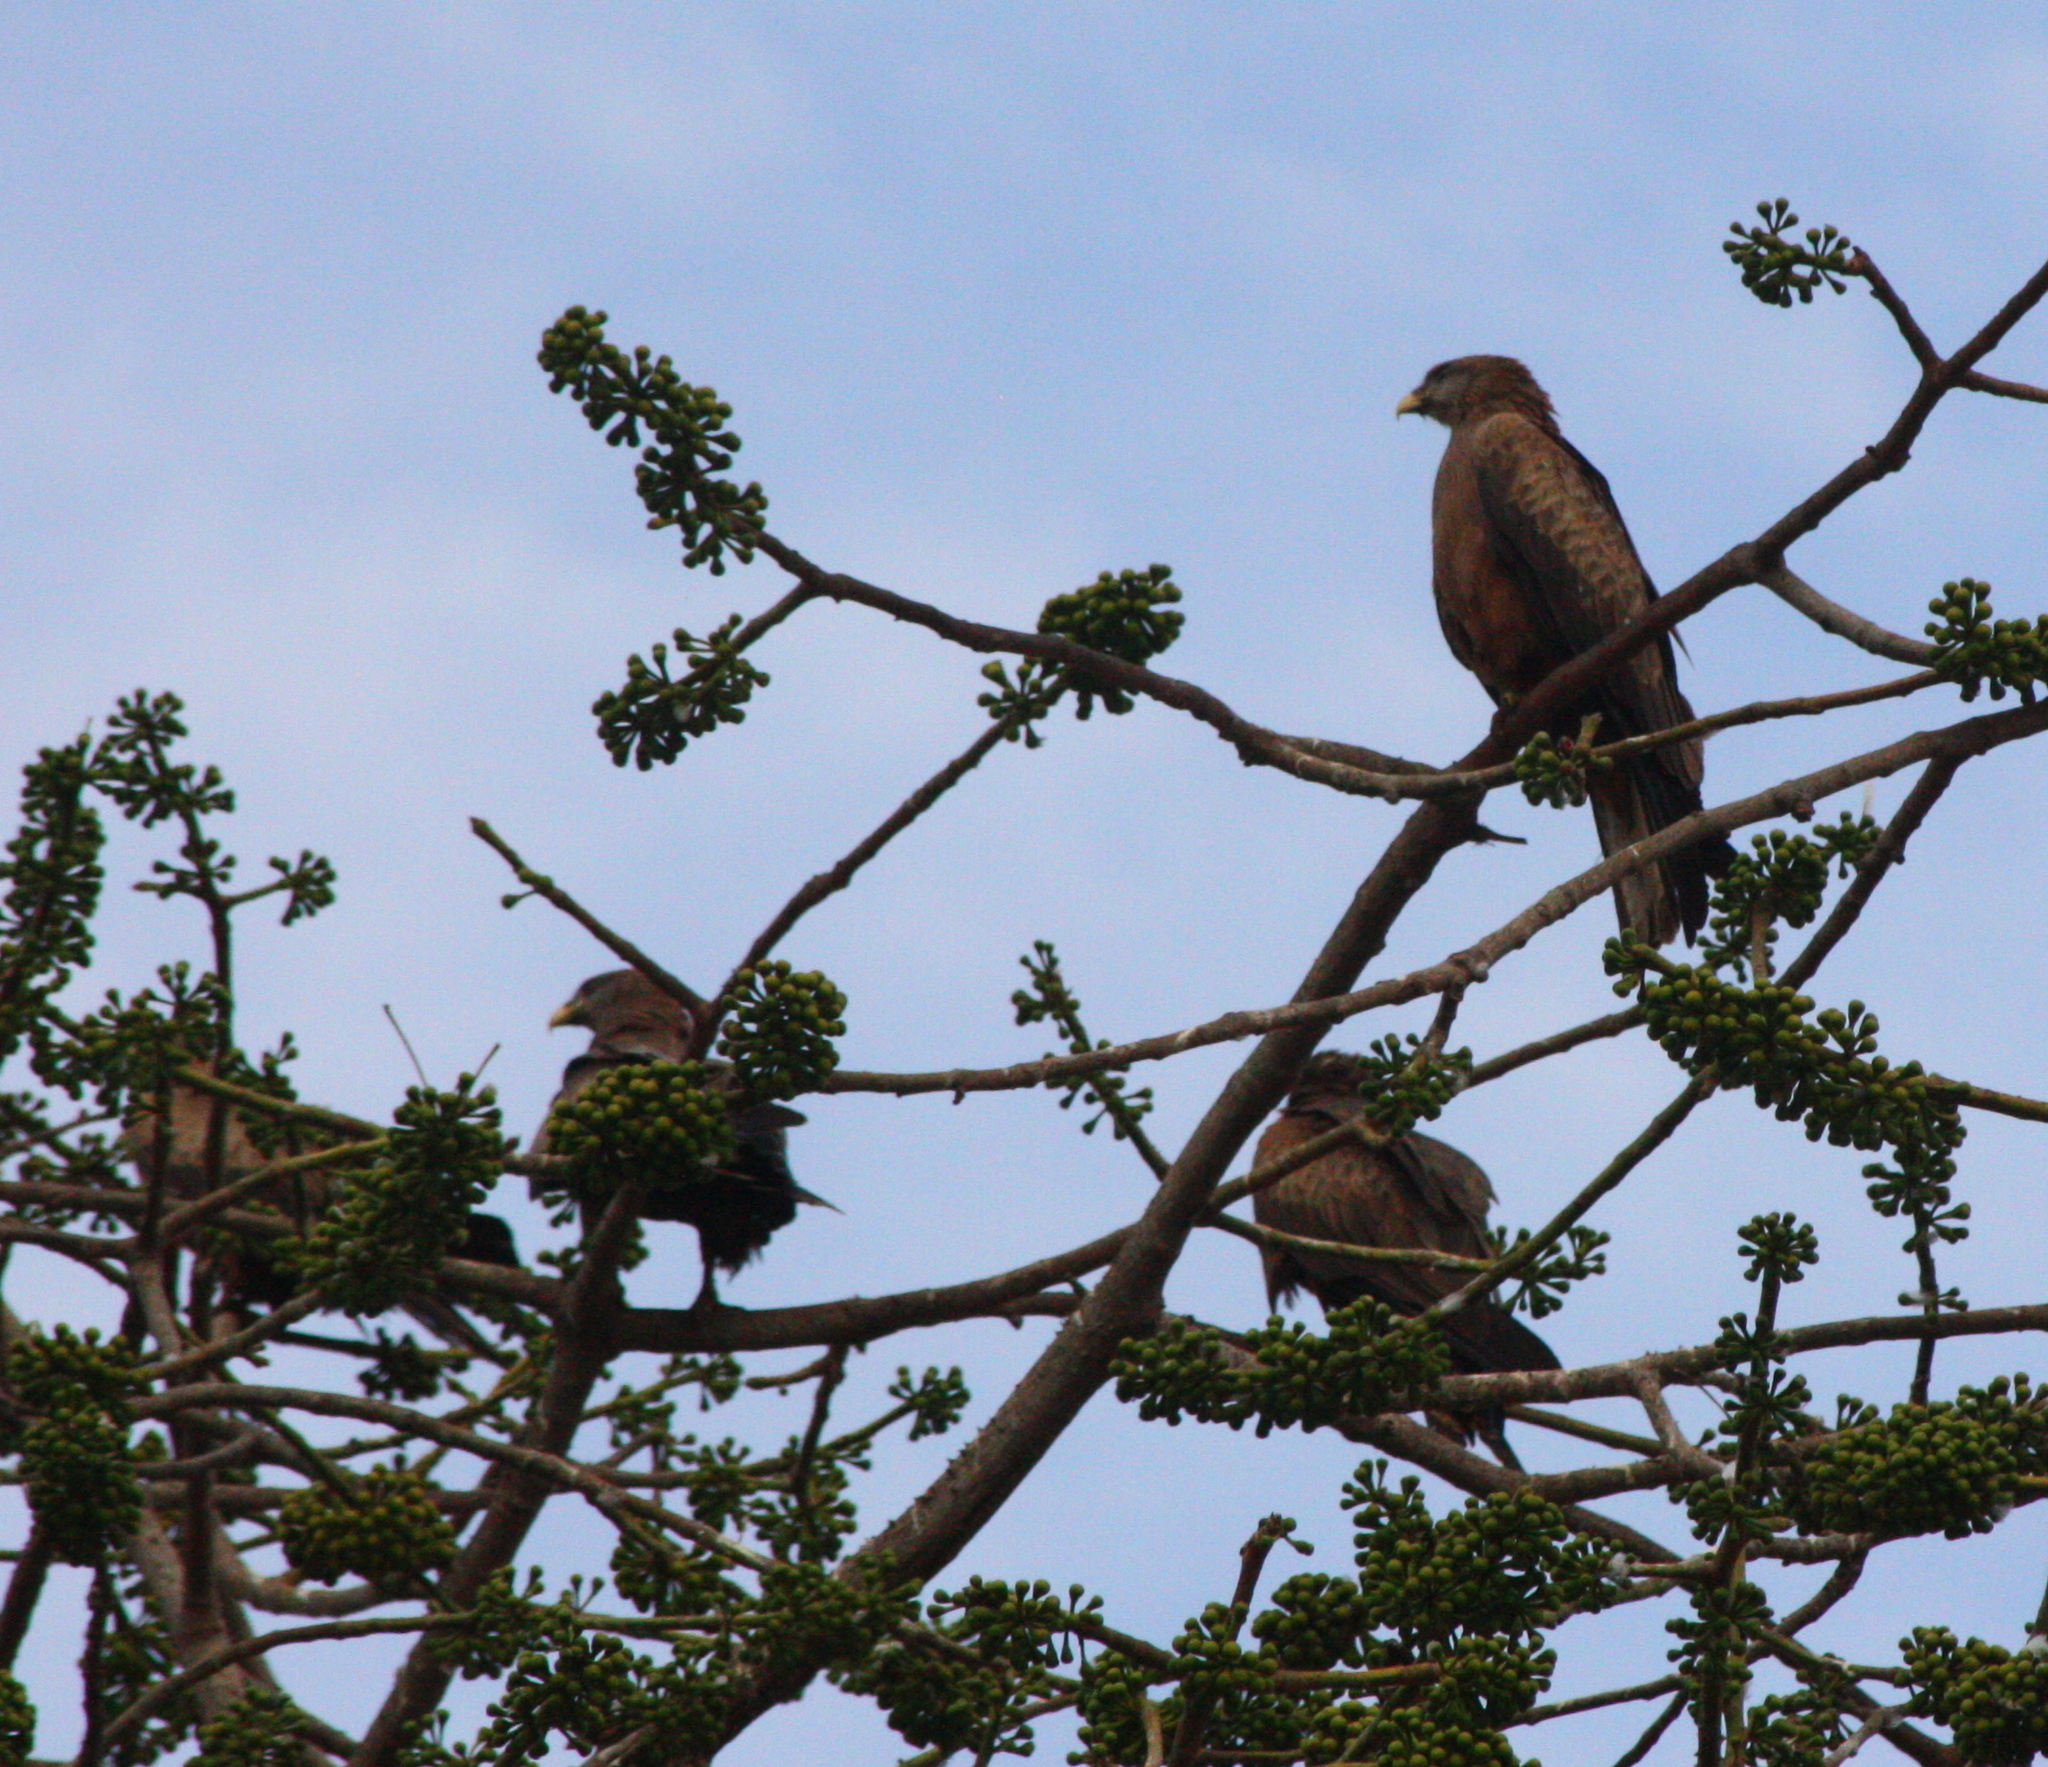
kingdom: Animalia
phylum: Chordata
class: Aves
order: Accipitriformes
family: Accipitridae
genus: Milvus
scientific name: Milvus migrans
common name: Black kite
